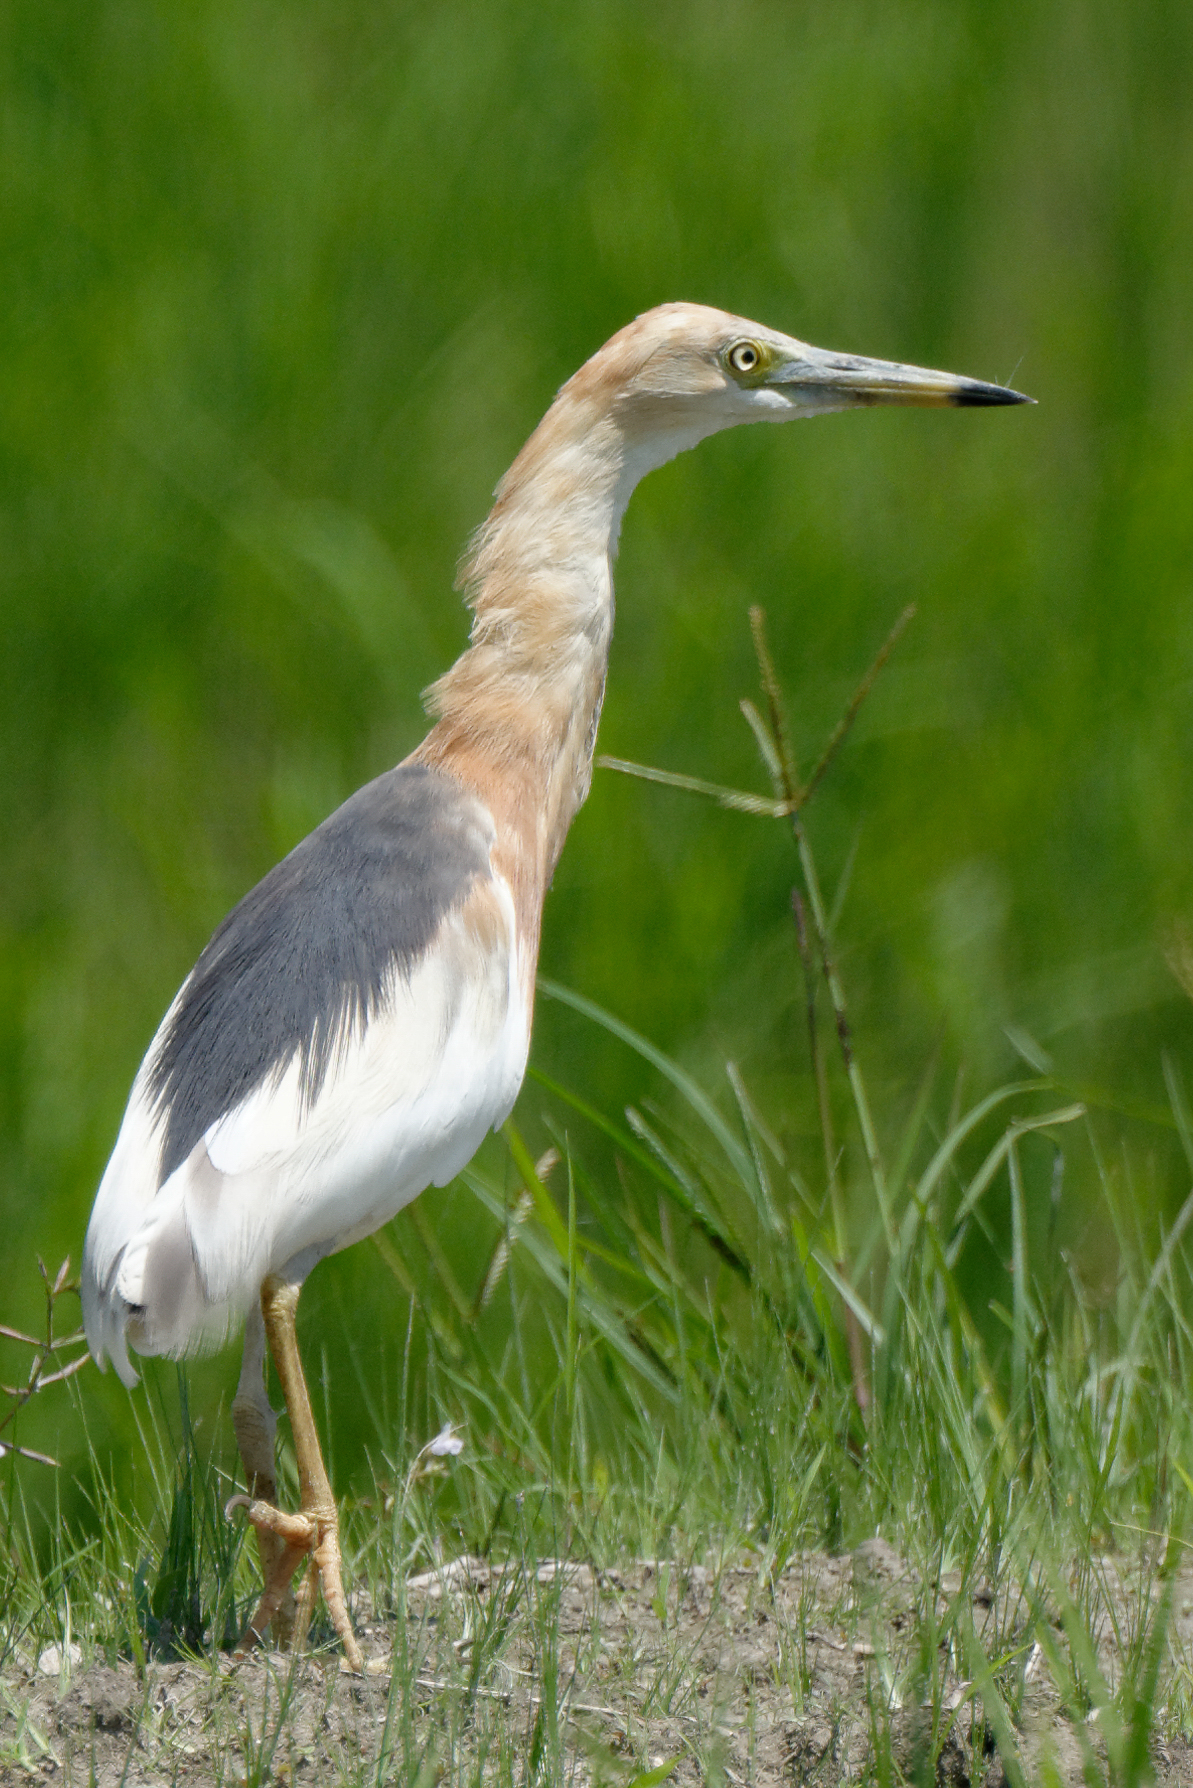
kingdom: Animalia
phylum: Chordata
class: Aves
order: Pelecaniformes
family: Ardeidae
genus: Ardeola
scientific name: Ardeola speciosa
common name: Javan pond heron
